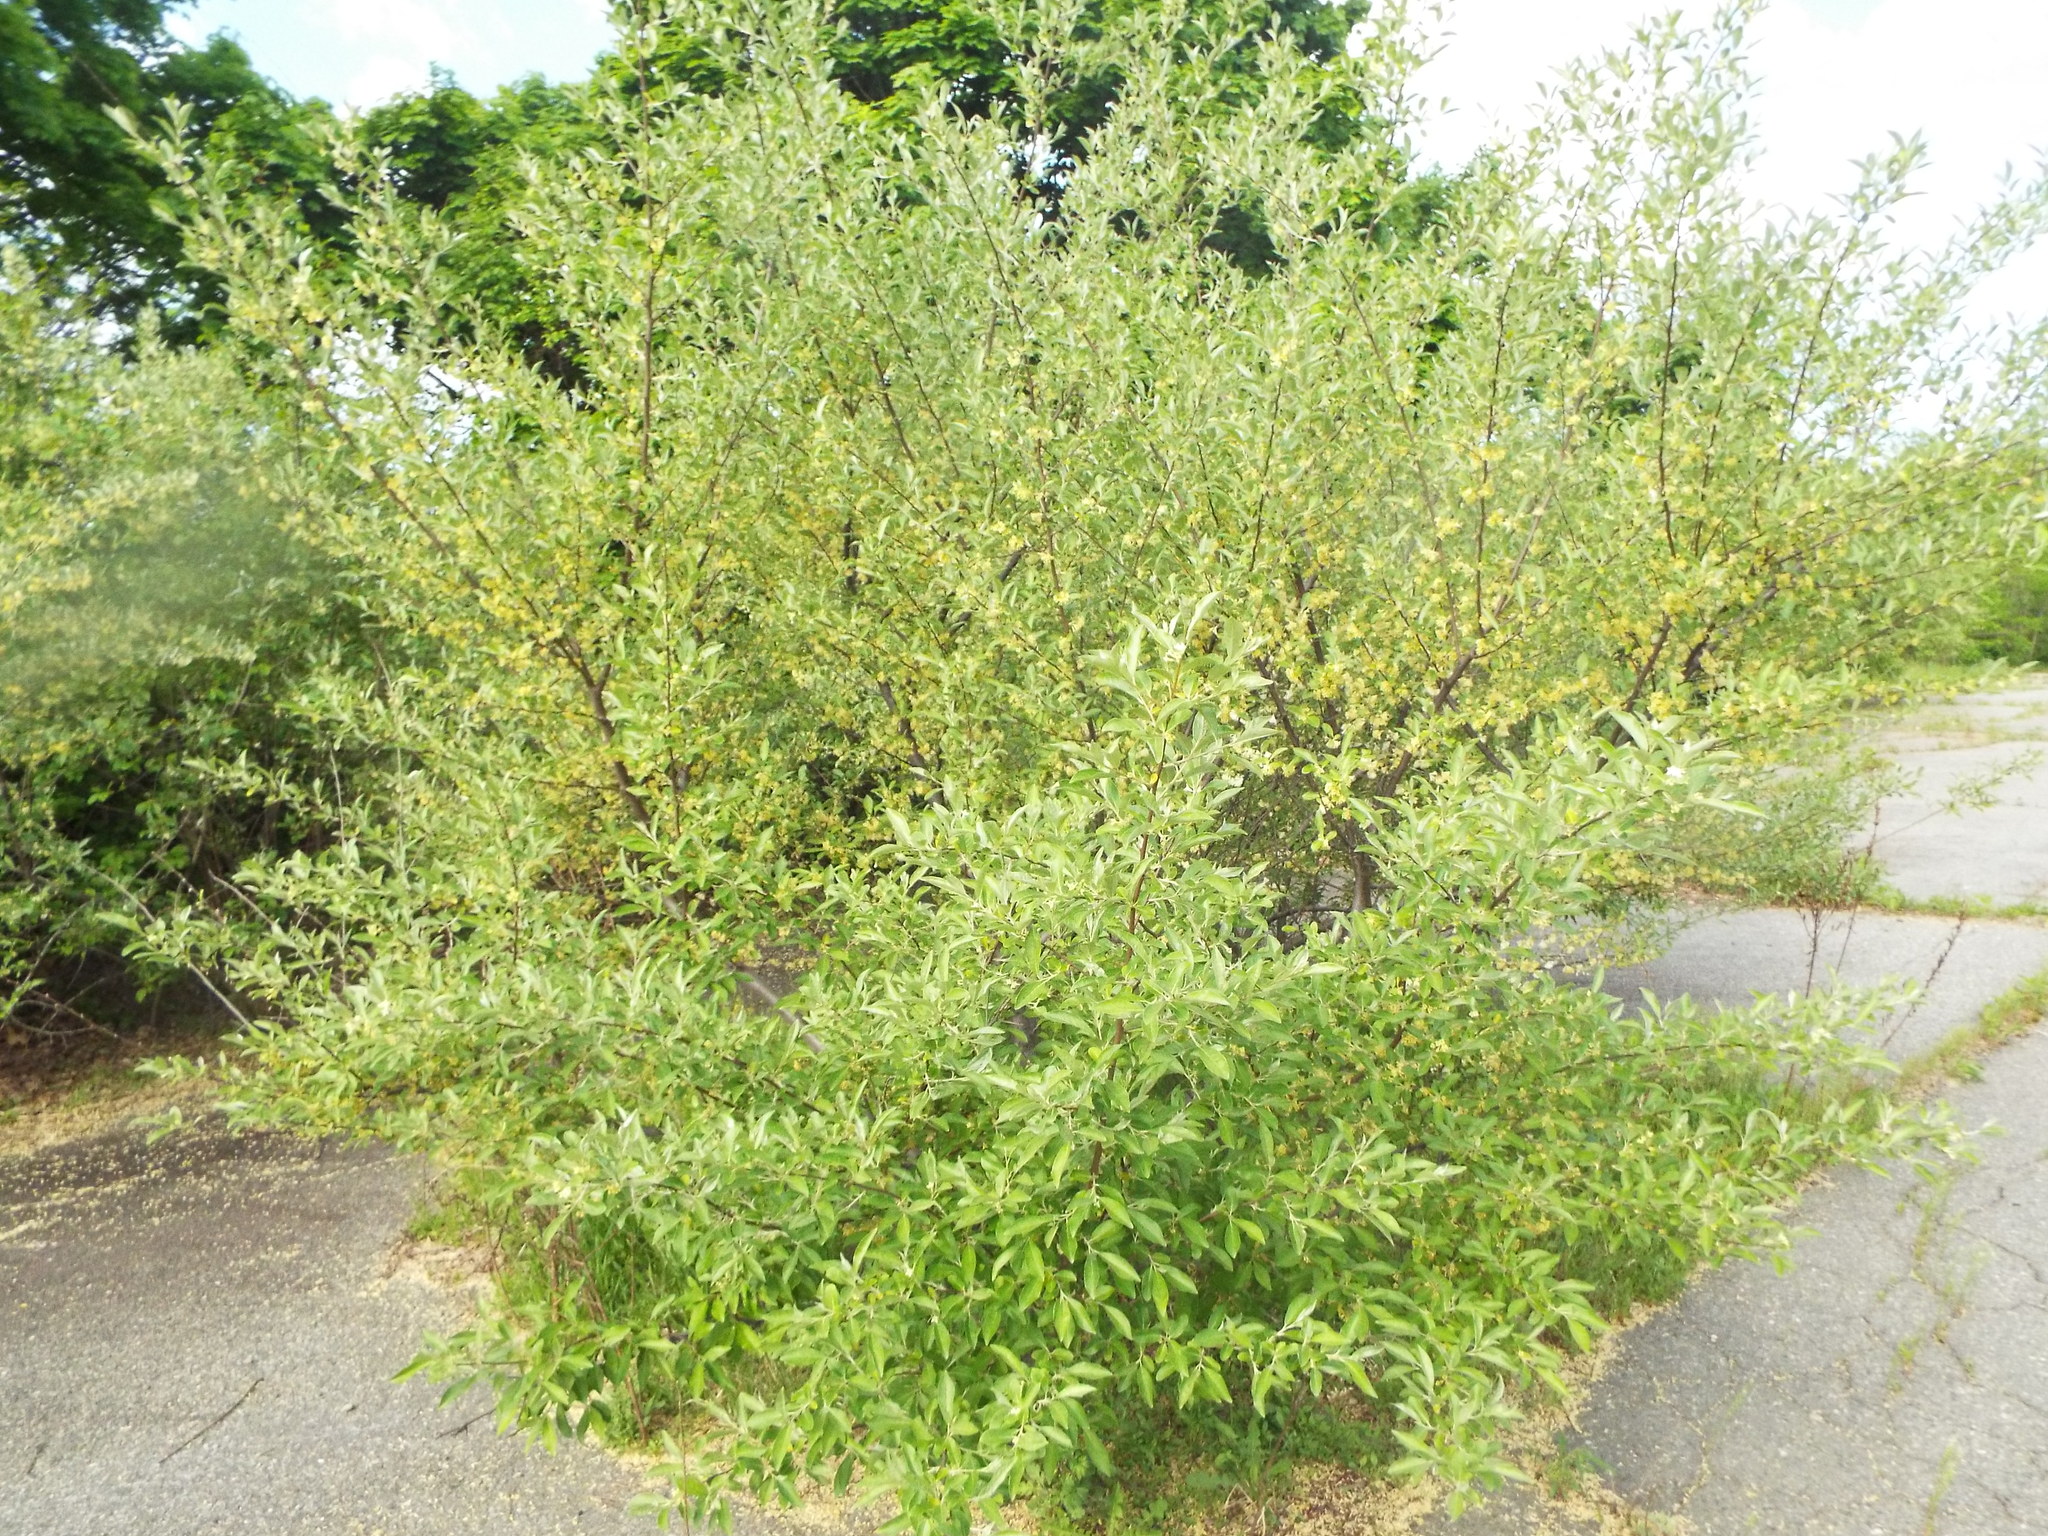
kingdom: Plantae
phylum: Tracheophyta
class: Magnoliopsida
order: Rosales
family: Elaeagnaceae
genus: Elaeagnus
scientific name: Elaeagnus umbellata
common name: Autumn olive
